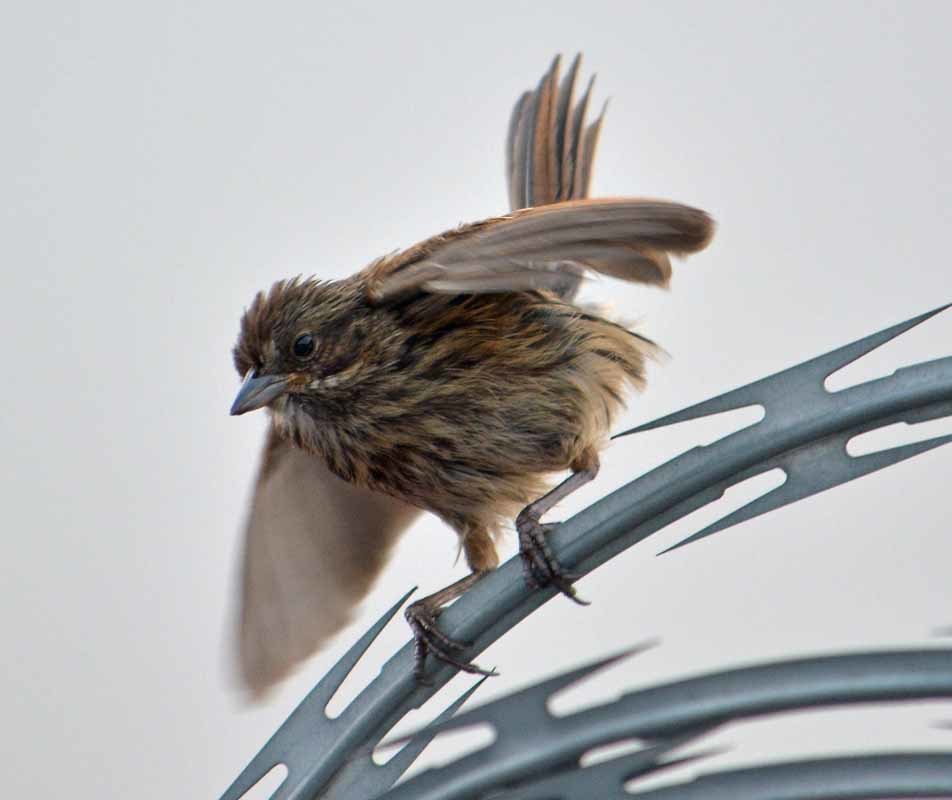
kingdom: Animalia
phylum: Chordata
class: Aves
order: Passeriformes
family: Passerellidae
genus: Melospiza
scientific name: Melospiza melodia
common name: Song sparrow
